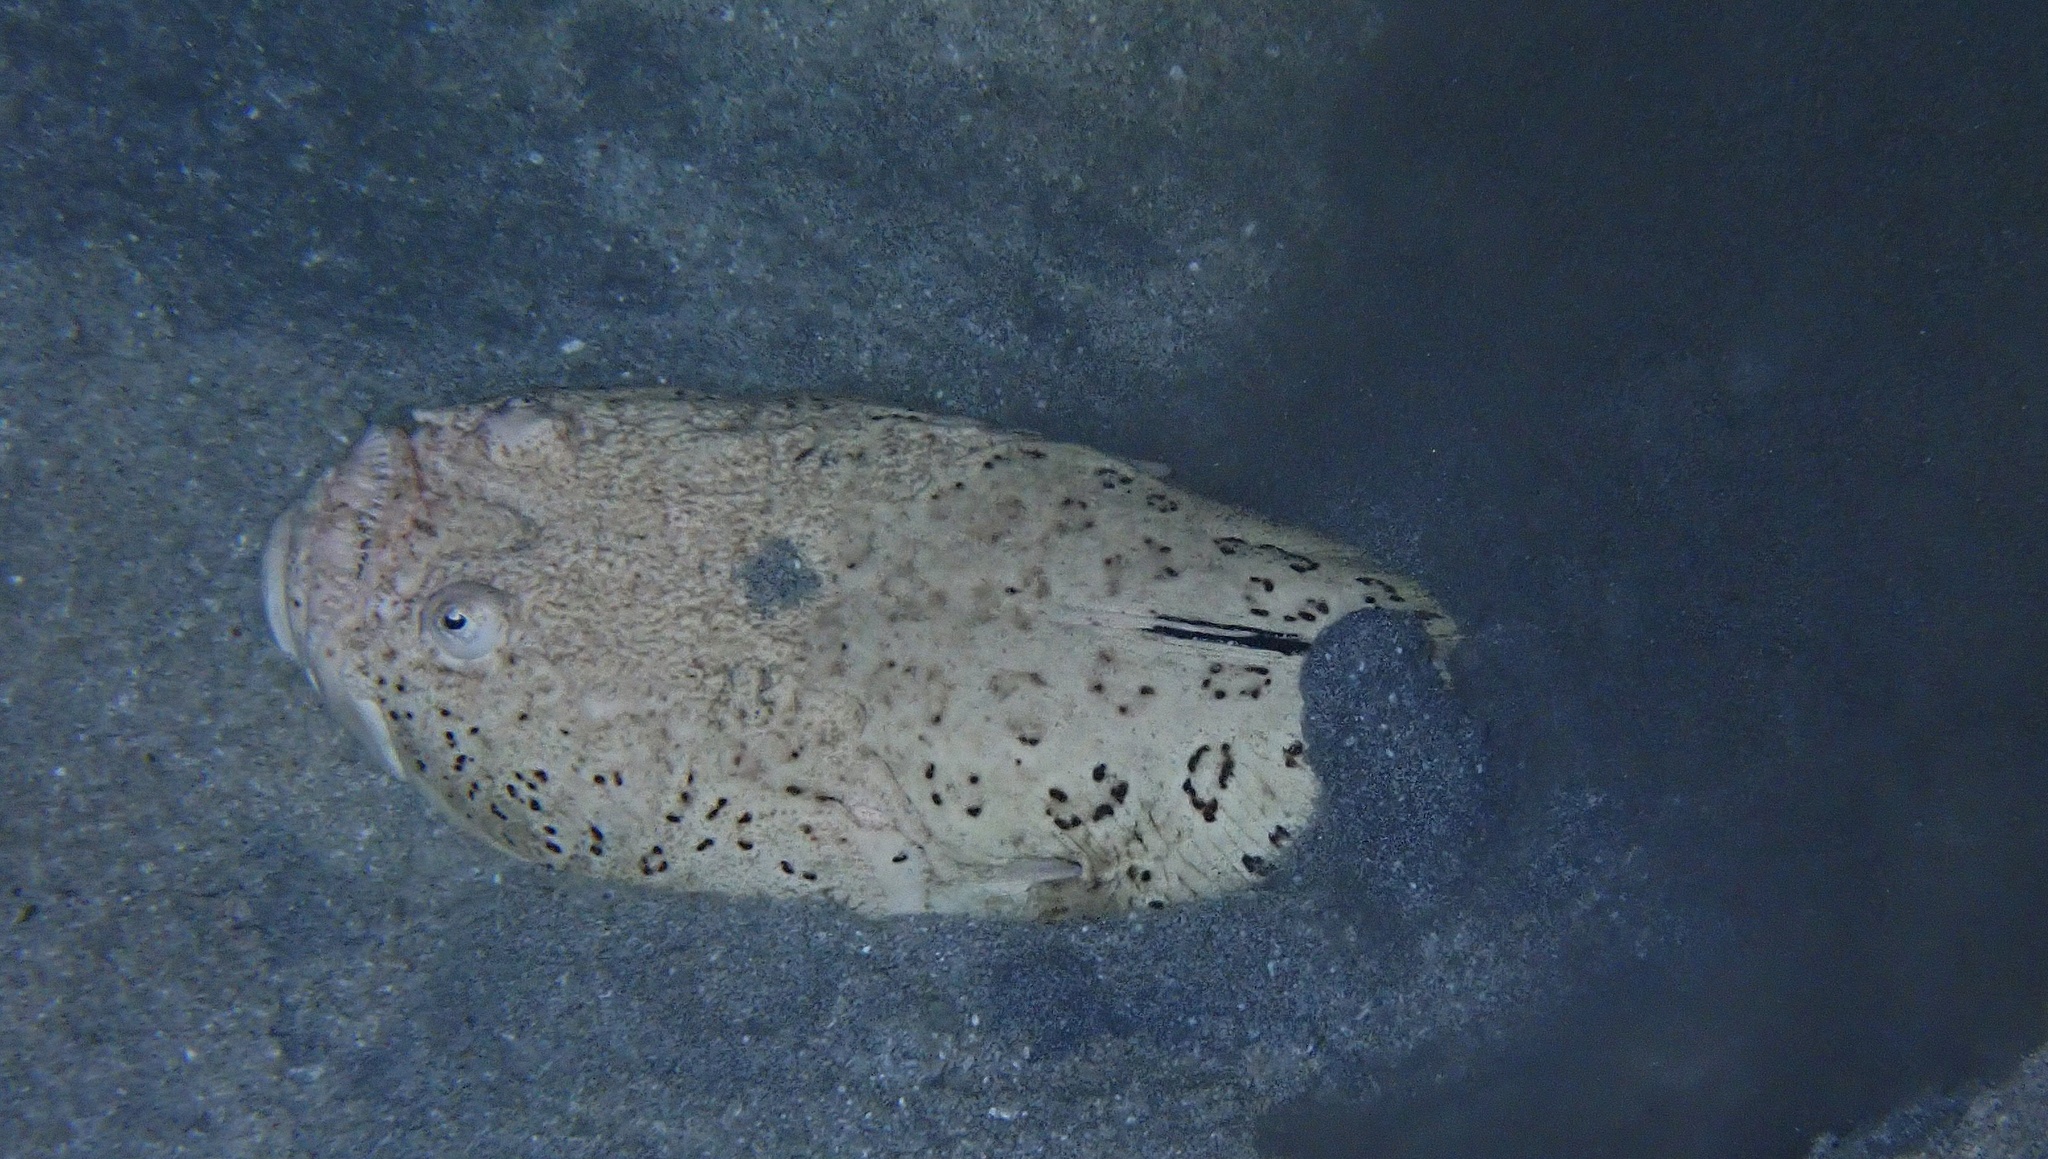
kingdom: Animalia
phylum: Chordata
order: Perciformes
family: Uranoscopidae
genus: Uranoscopus
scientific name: Uranoscopus dollfusi
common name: Dollfus' stargazer
